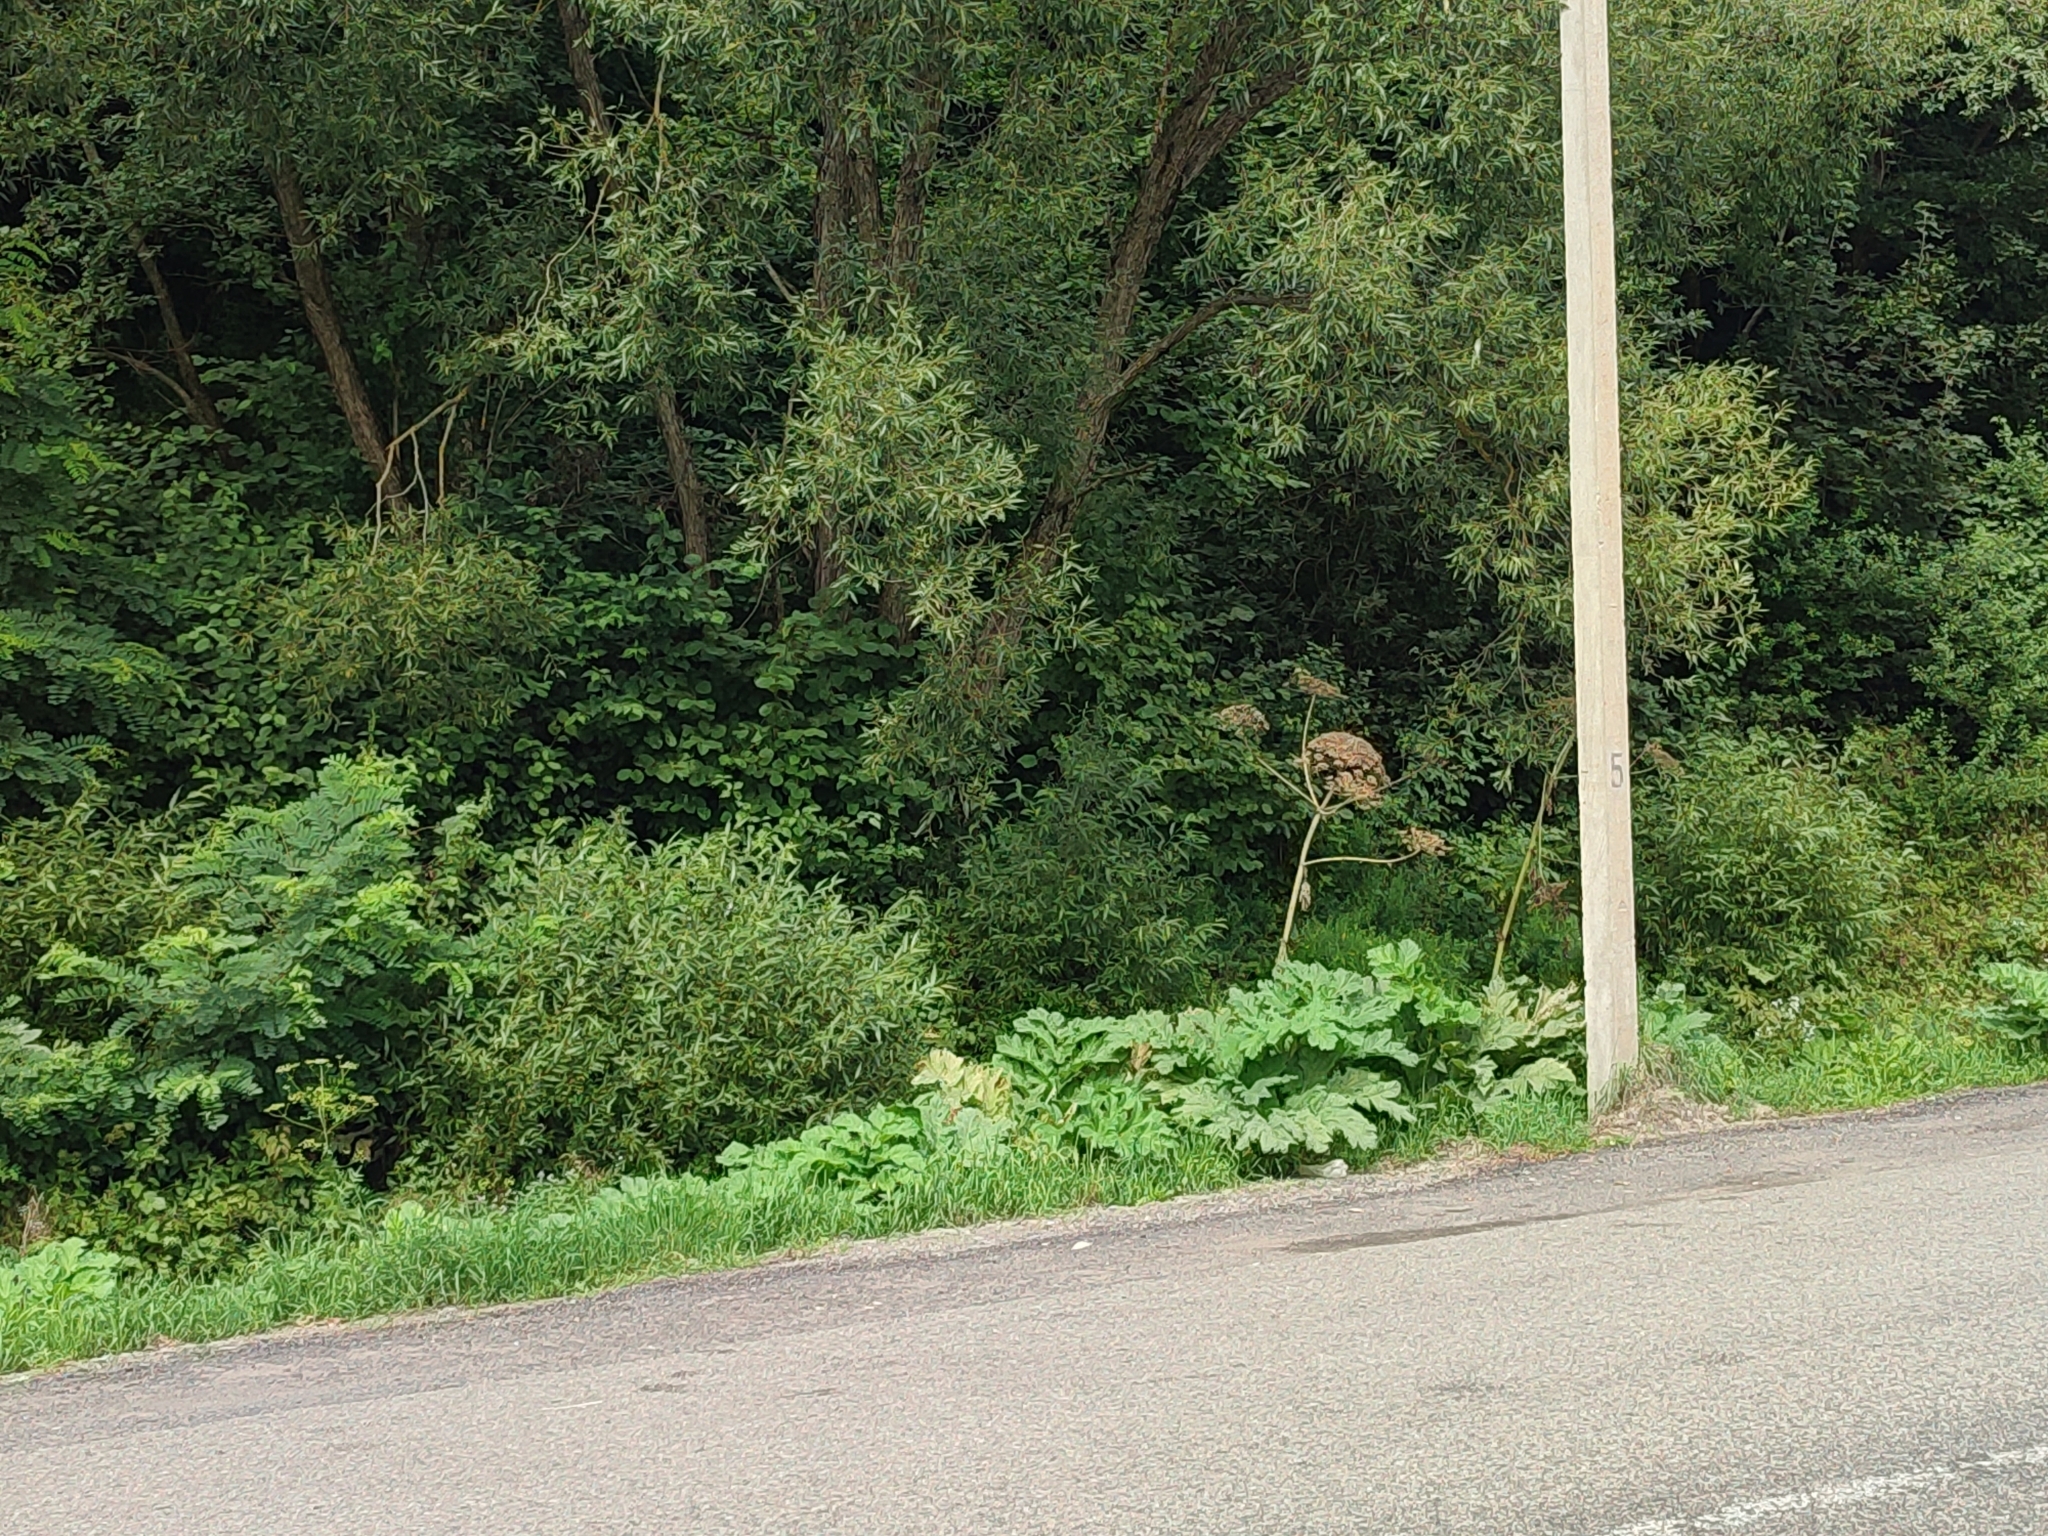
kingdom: Plantae
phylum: Tracheophyta
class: Magnoliopsida
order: Apiales
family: Apiaceae
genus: Heracleum
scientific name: Heracleum sosnowskyi
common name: Sosnowsky's hogweed
